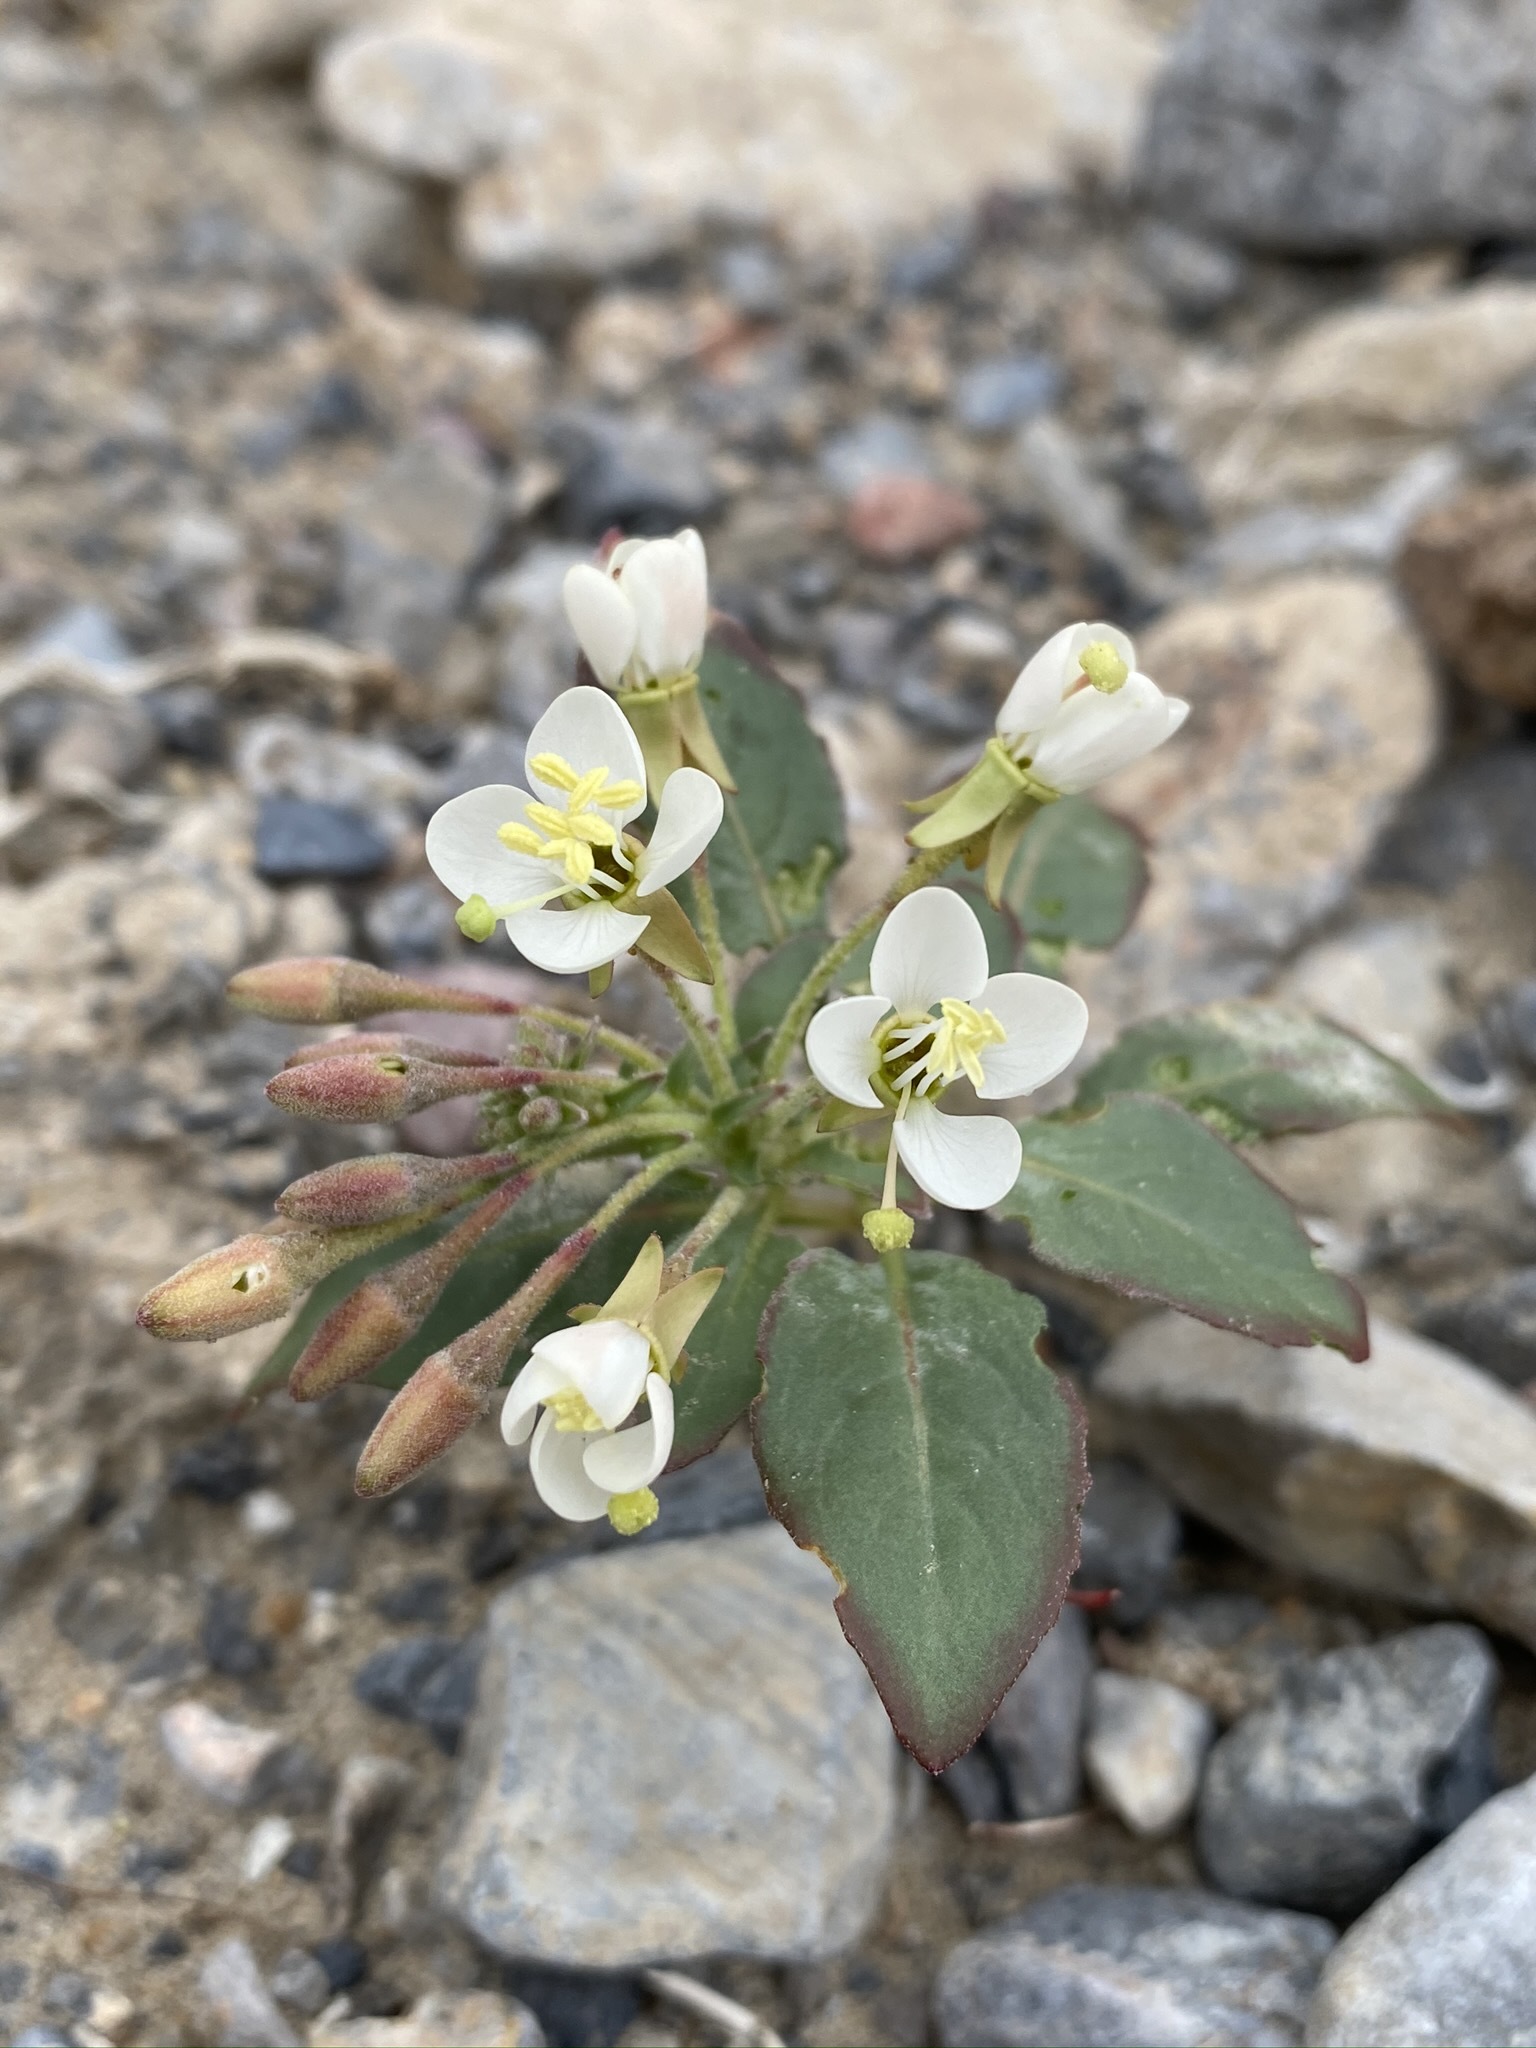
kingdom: Plantae
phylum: Tracheophyta
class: Magnoliopsida
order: Myrtales
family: Onagraceae
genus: Eremothera
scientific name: Eremothera boothii
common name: Booth's evening primrose
